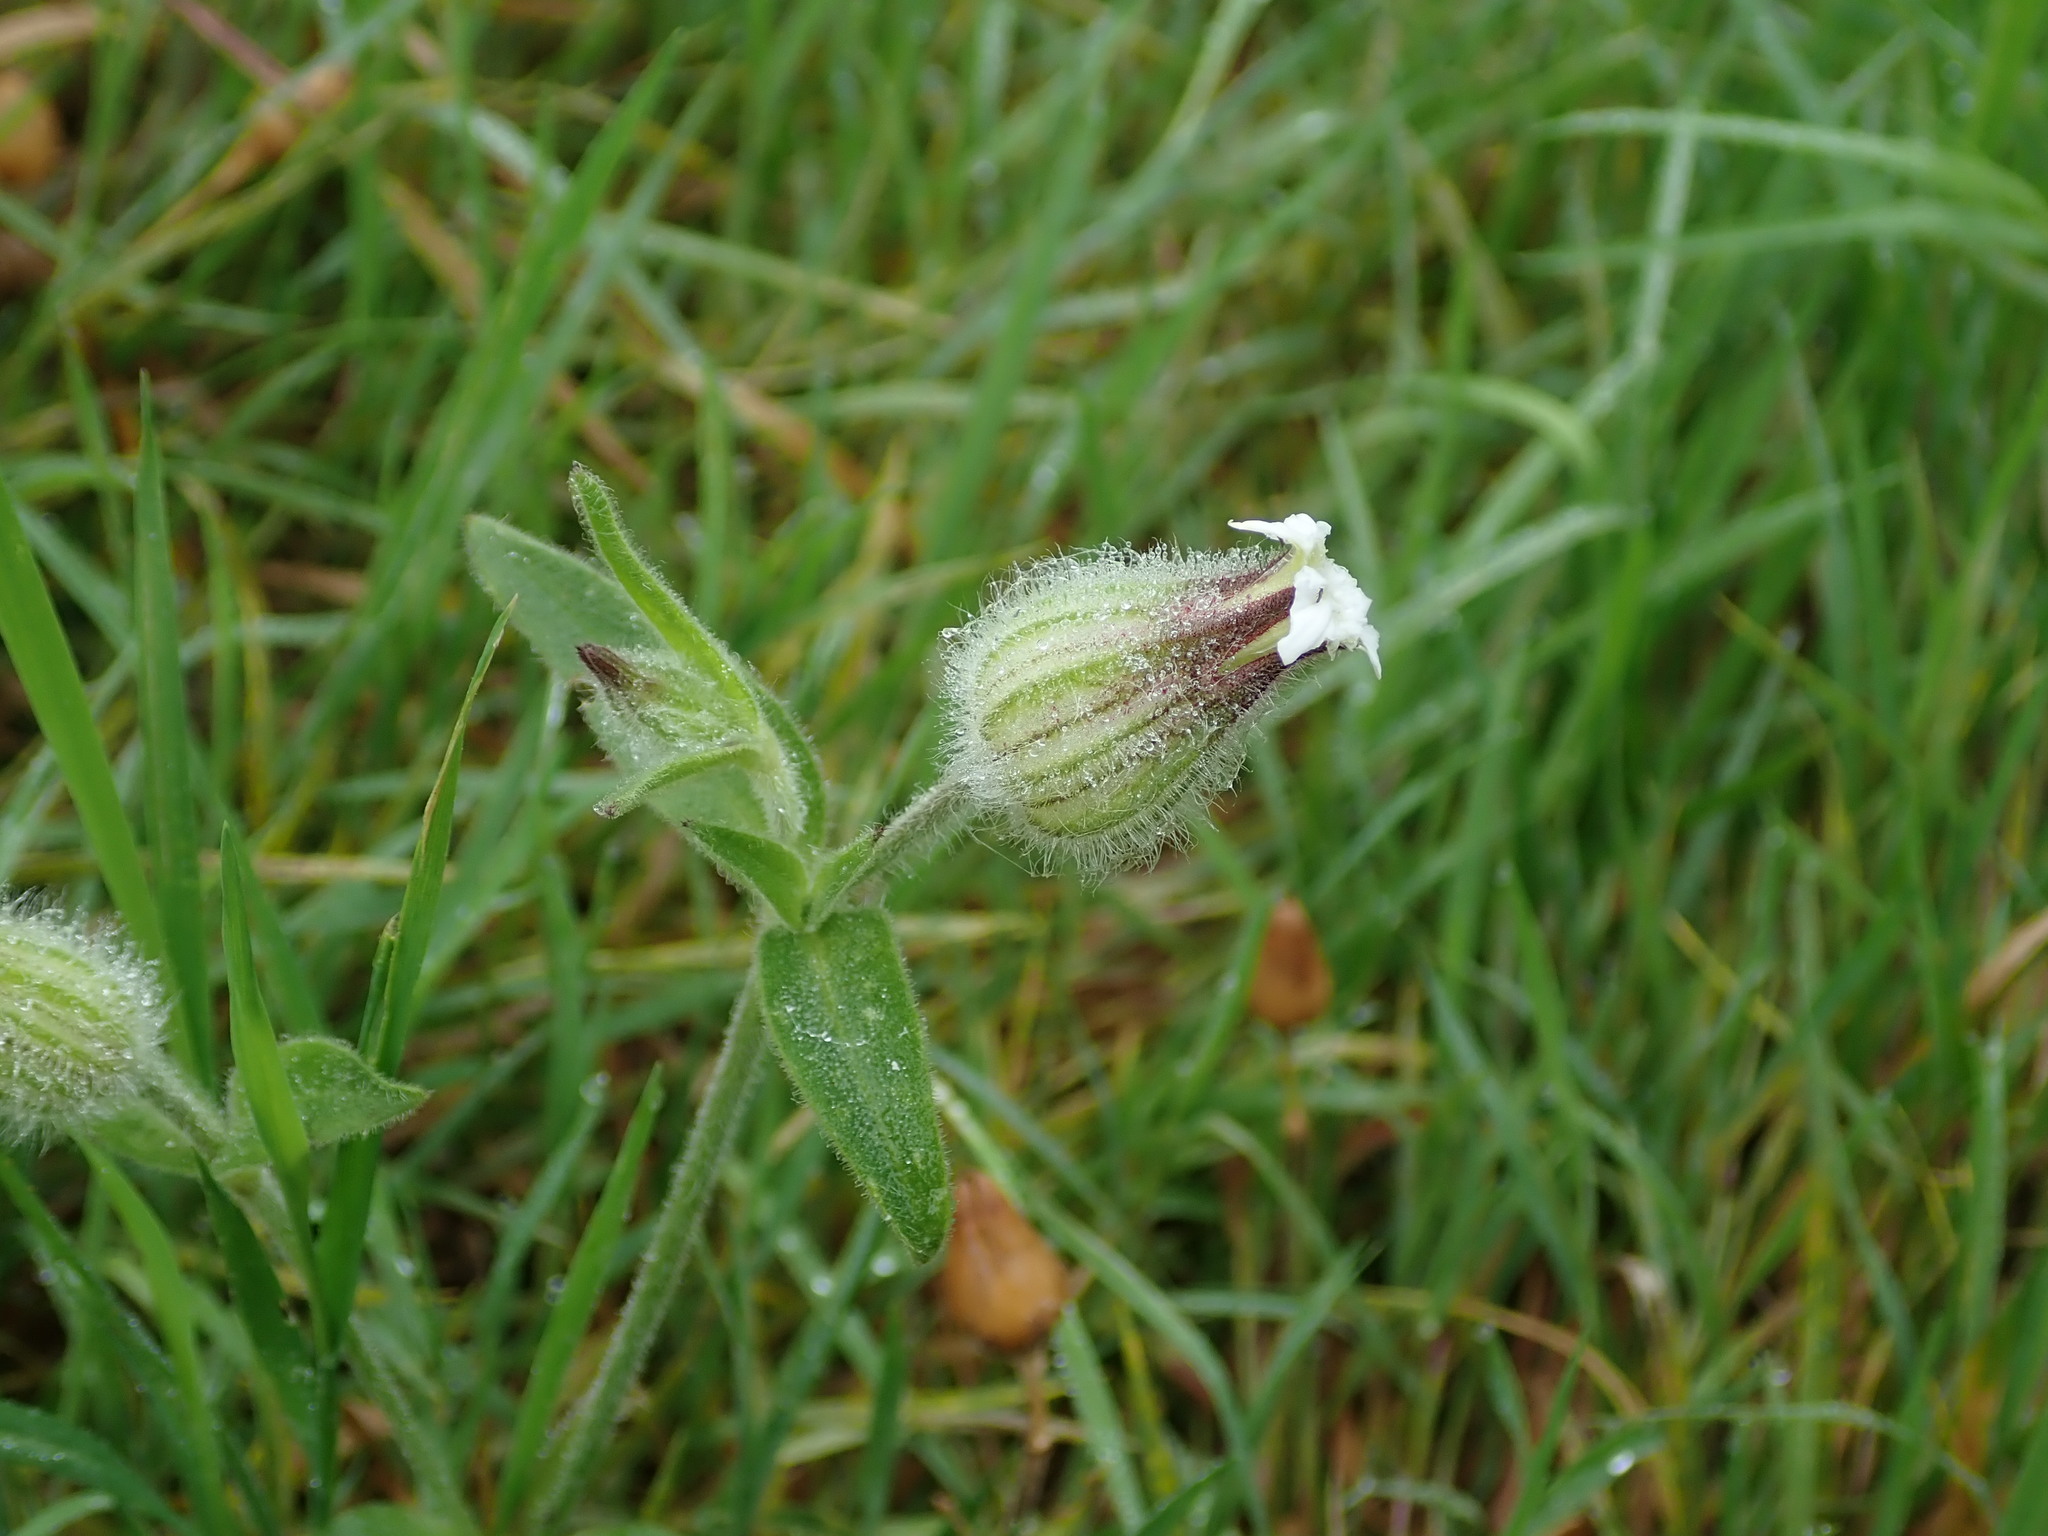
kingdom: Plantae
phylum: Tracheophyta
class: Magnoliopsida
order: Caryophyllales
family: Caryophyllaceae
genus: Silene
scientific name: Silene latifolia
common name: White campion
